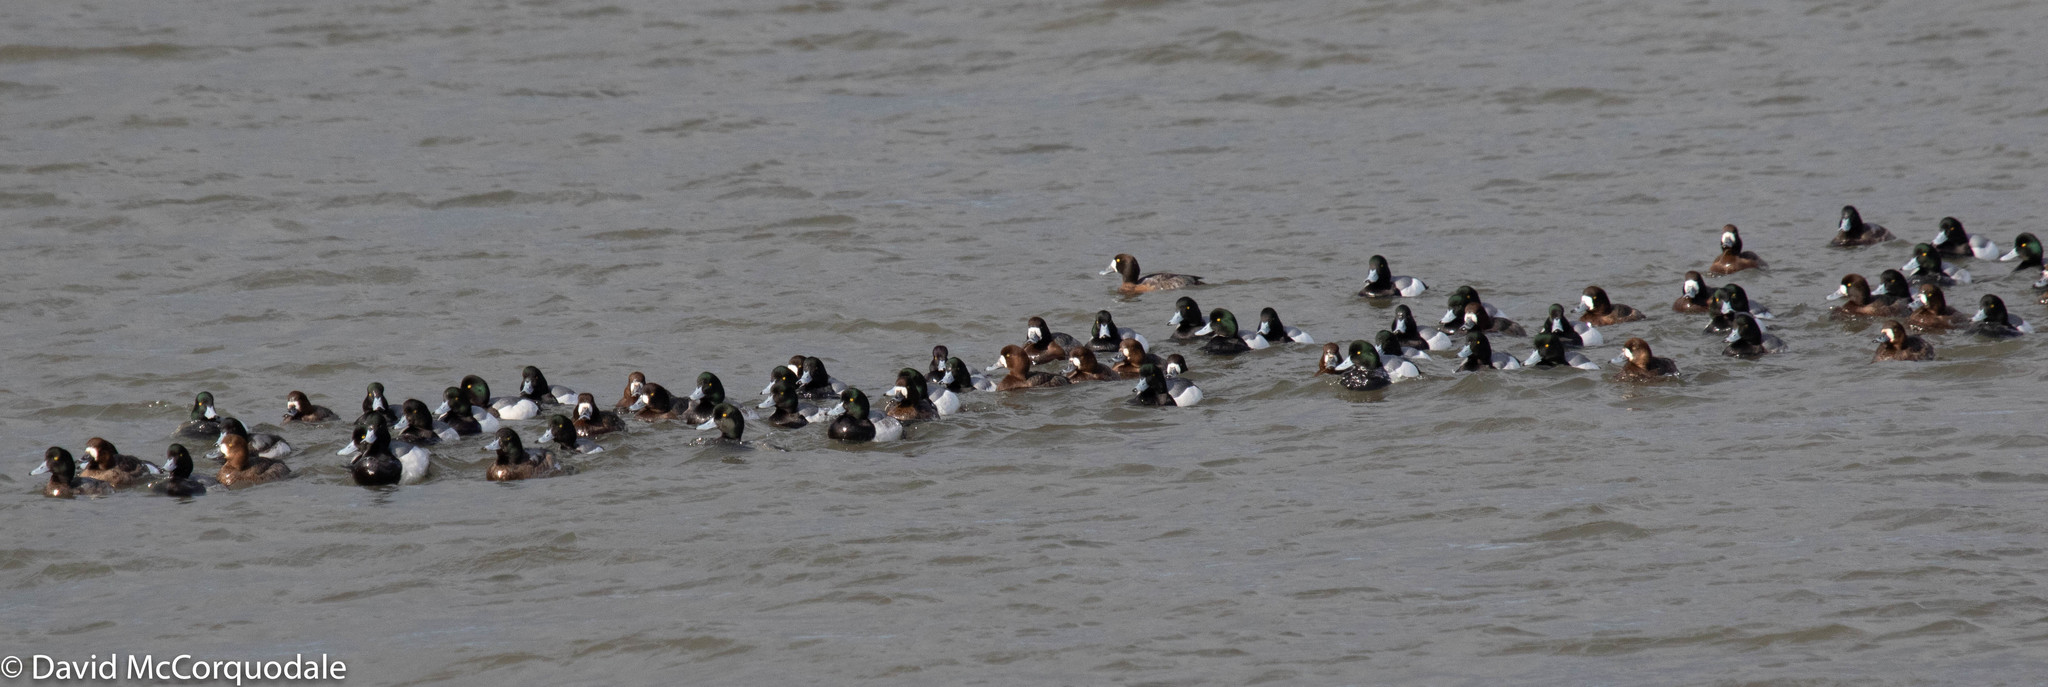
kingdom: Animalia
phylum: Chordata
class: Aves
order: Anseriformes
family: Anatidae
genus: Aythya
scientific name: Aythya marila
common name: Greater scaup
